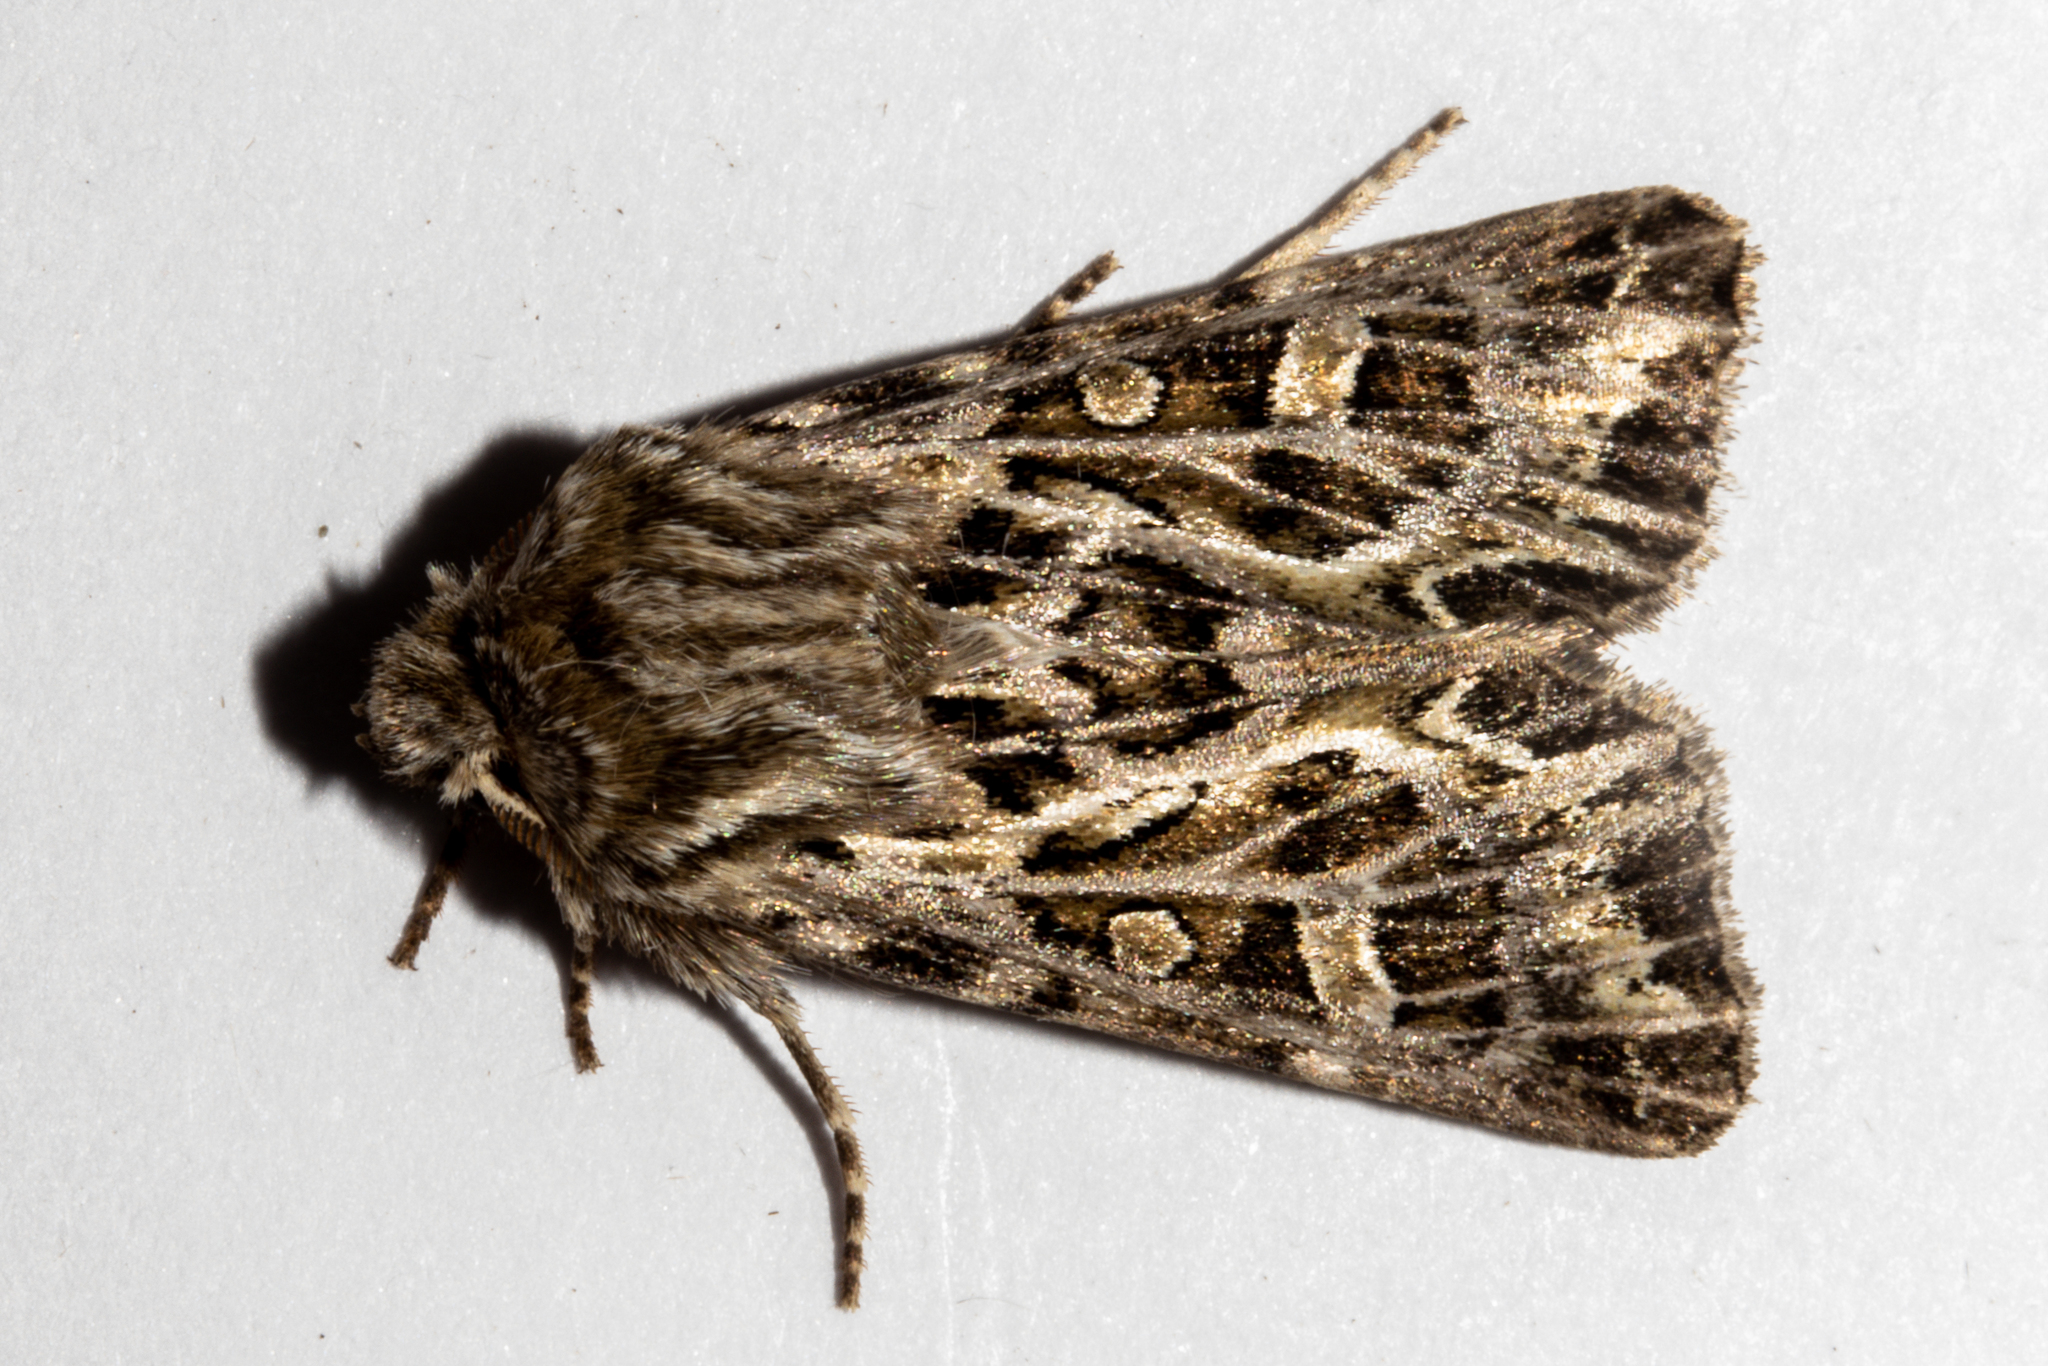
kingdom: Animalia
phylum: Arthropoda
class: Insecta
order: Lepidoptera
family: Noctuidae
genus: Ichneutica
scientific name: Ichneutica
